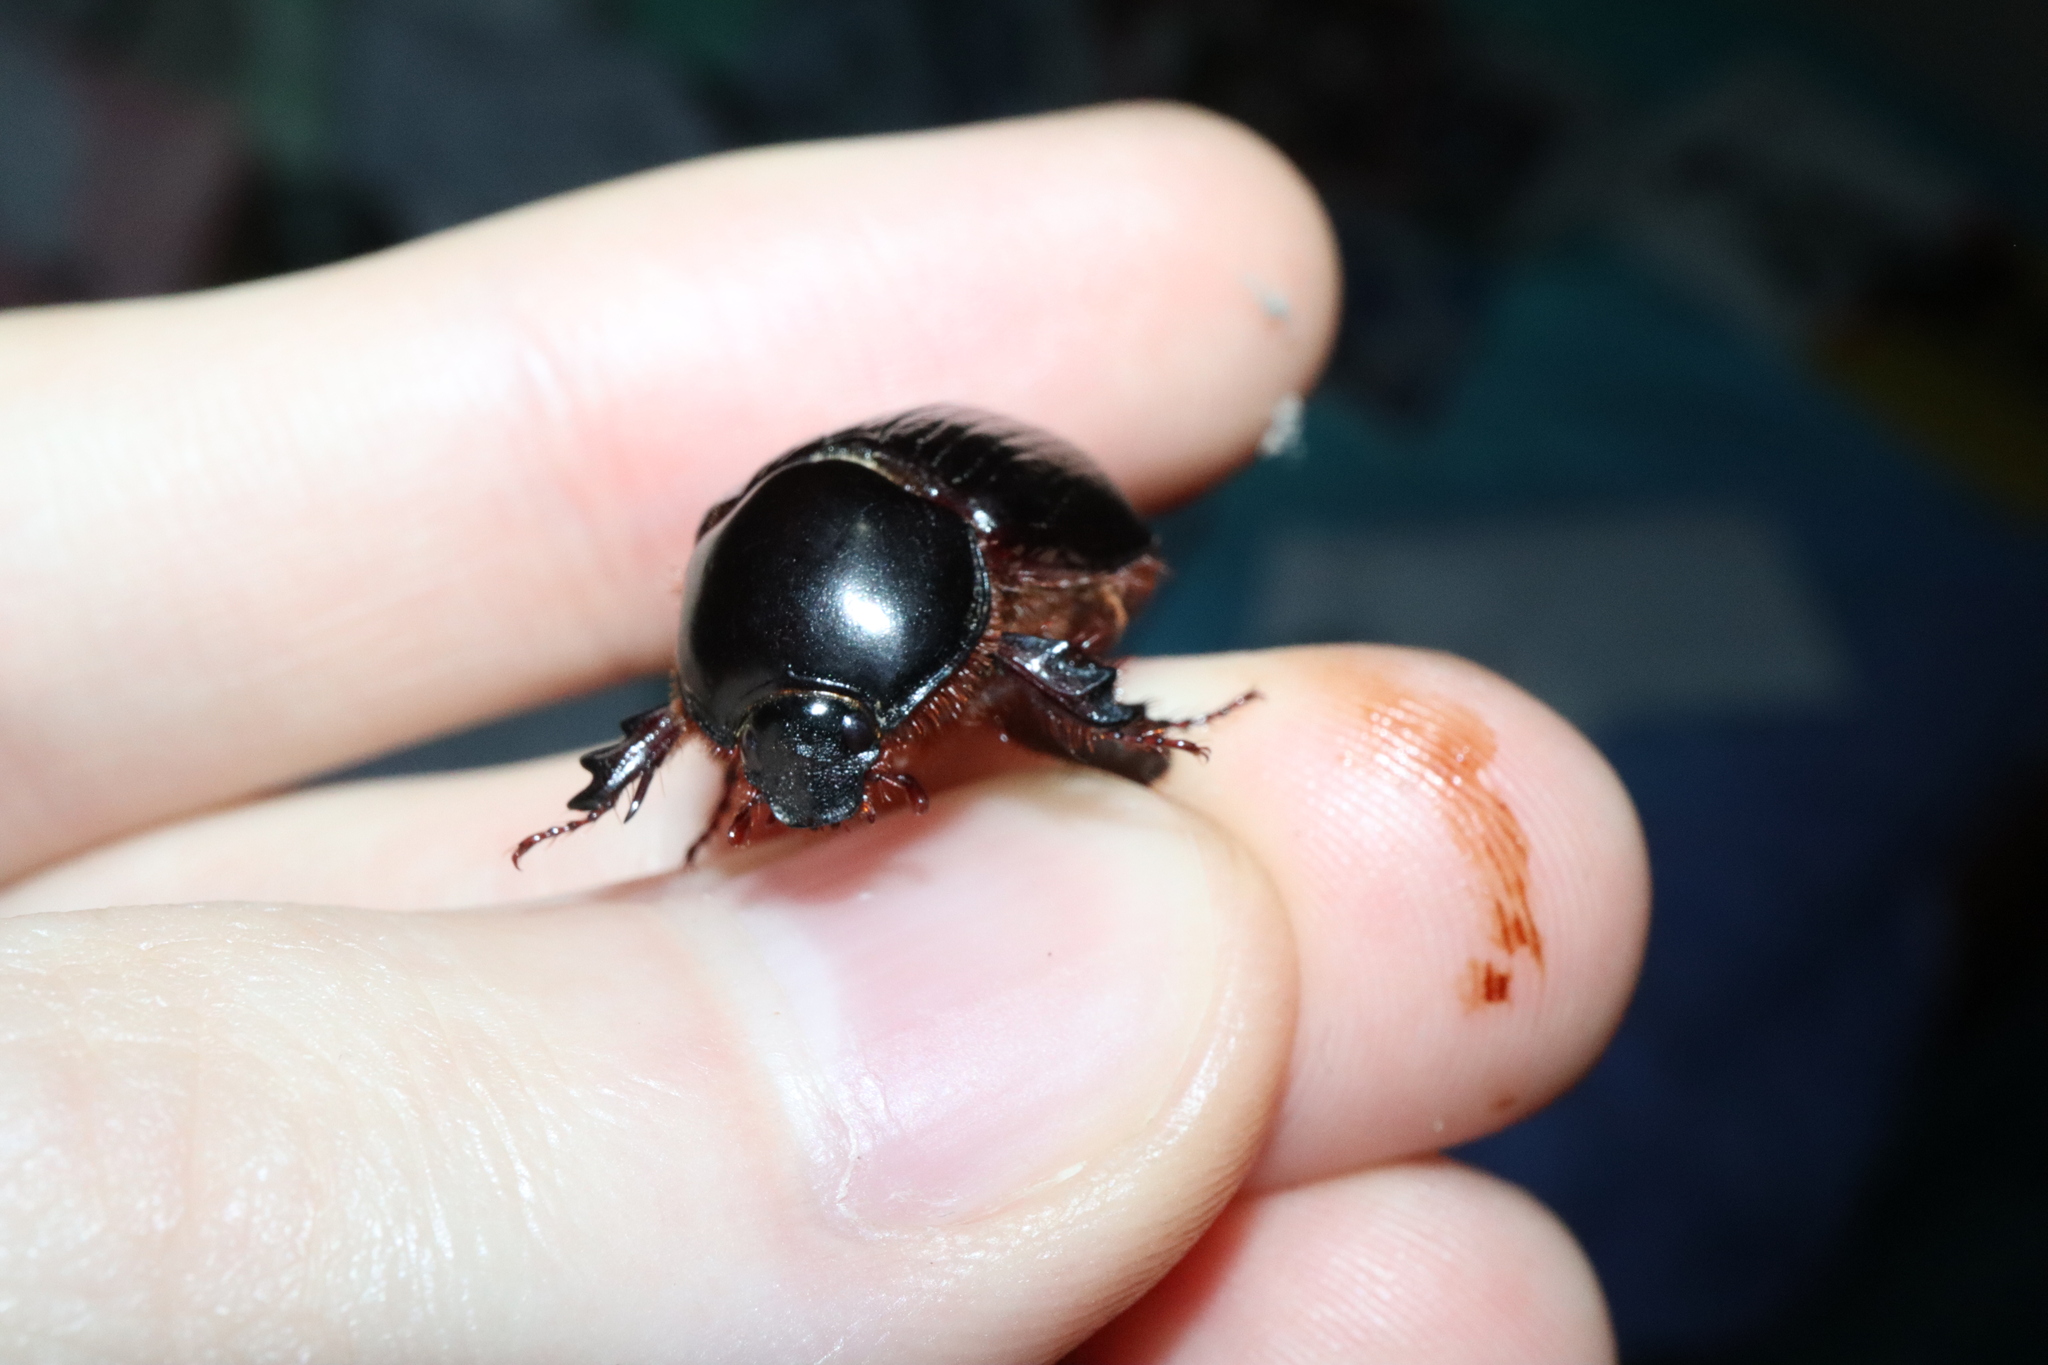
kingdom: Animalia
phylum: Arthropoda
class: Insecta
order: Coleoptera
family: Scarabaeidae
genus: Heteronychus
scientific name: Heteronychus arator
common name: African black beetle
